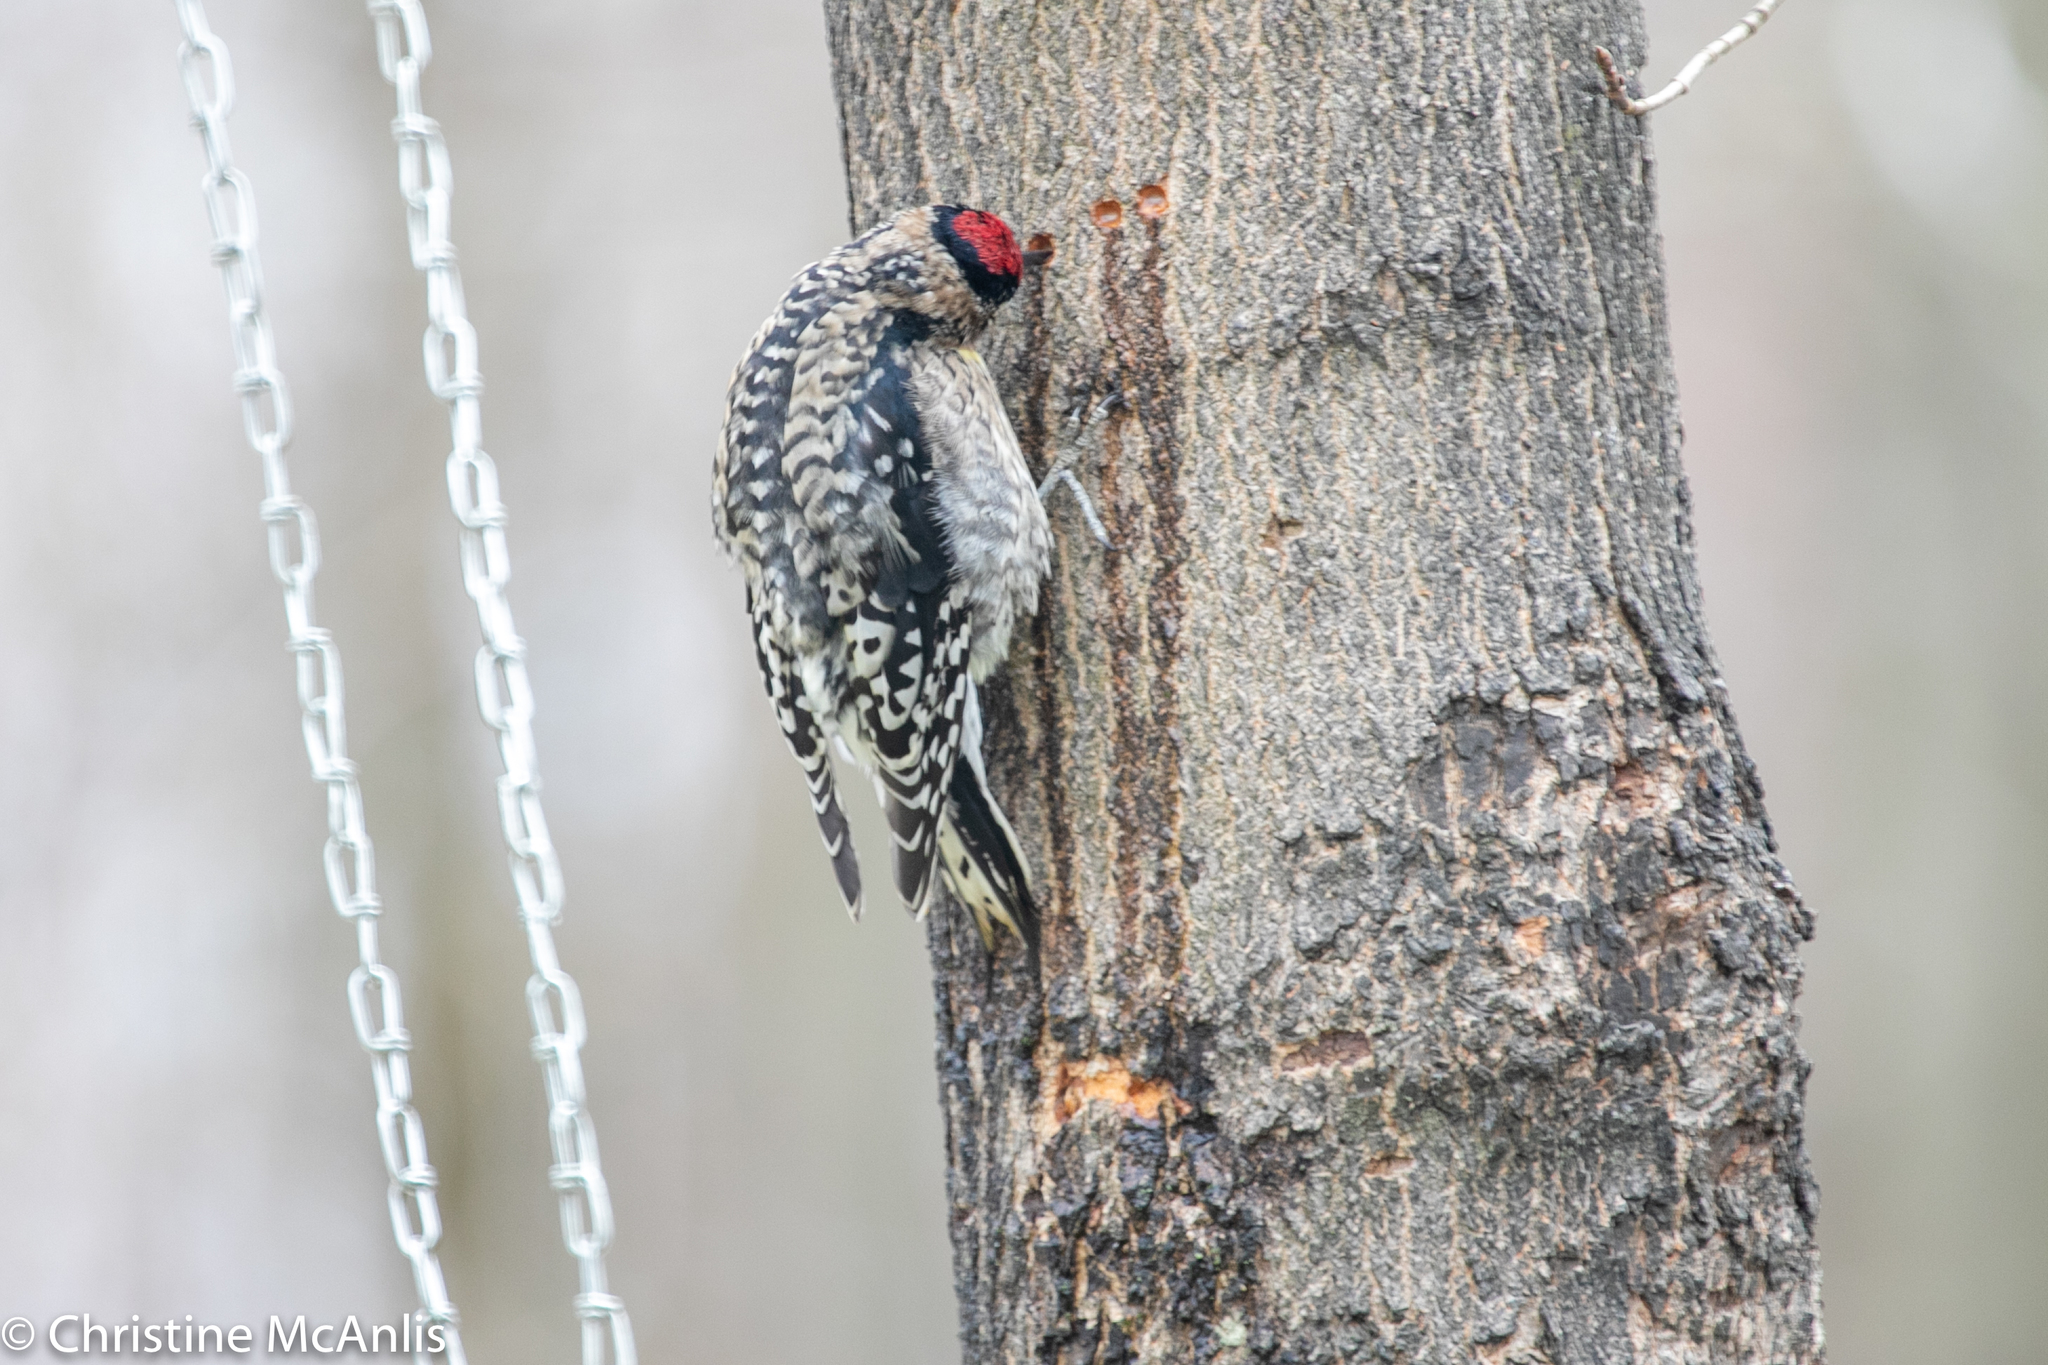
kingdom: Animalia
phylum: Chordata
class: Aves
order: Piciformes
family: Picidae
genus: Sphyrapicus
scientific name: Sphyrapicus varius
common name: Yellow-bellied sapsucker
